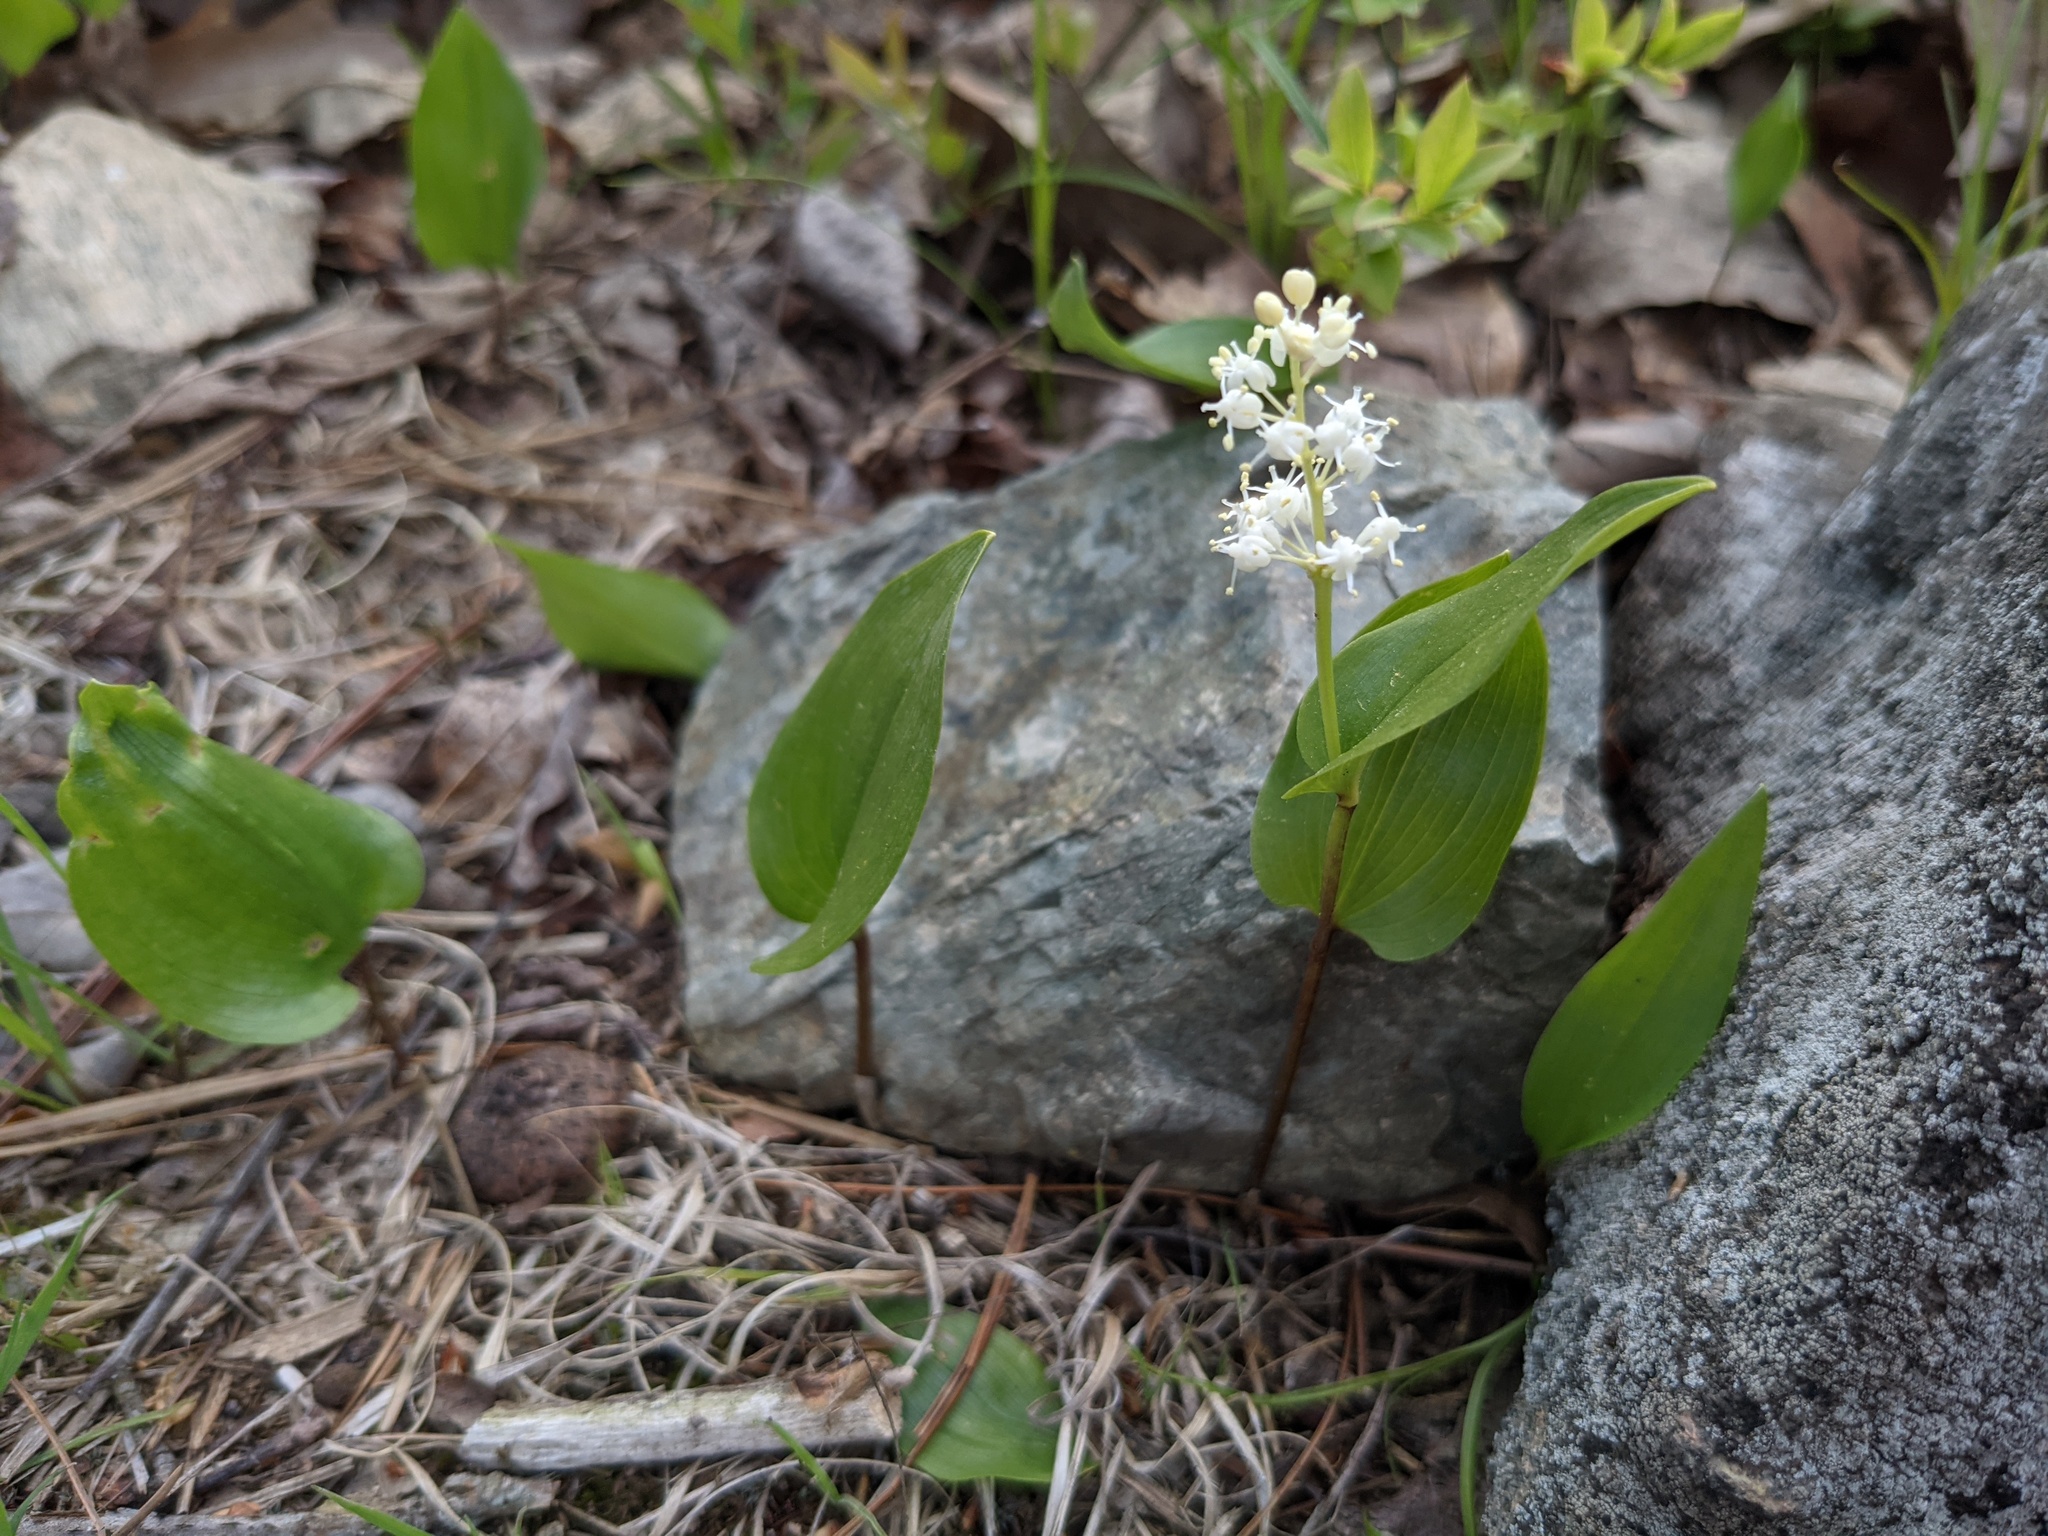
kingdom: Plantae
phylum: Tracheophyta
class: Liliopsida
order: Asparagales
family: Asparagaceae
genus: Maianthemum
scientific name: Maianthemum canadense
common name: False lily-of-the-valley
